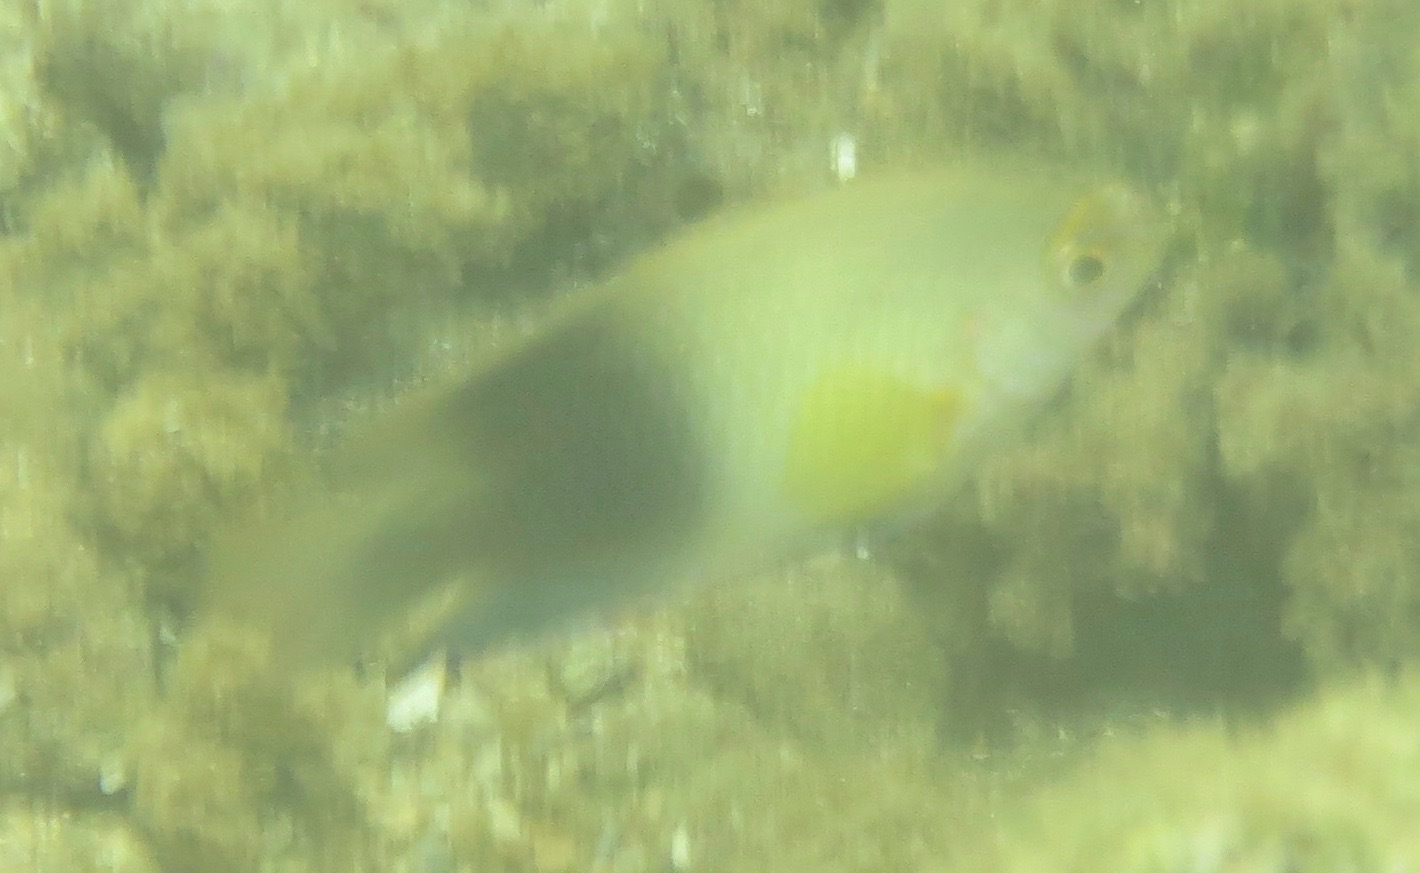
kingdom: Animalia
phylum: Chordata
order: Perciformes
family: Pomacentridae
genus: Chrysiptera
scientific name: Chrysiptera unimaculata
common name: Onespot demoiselle
